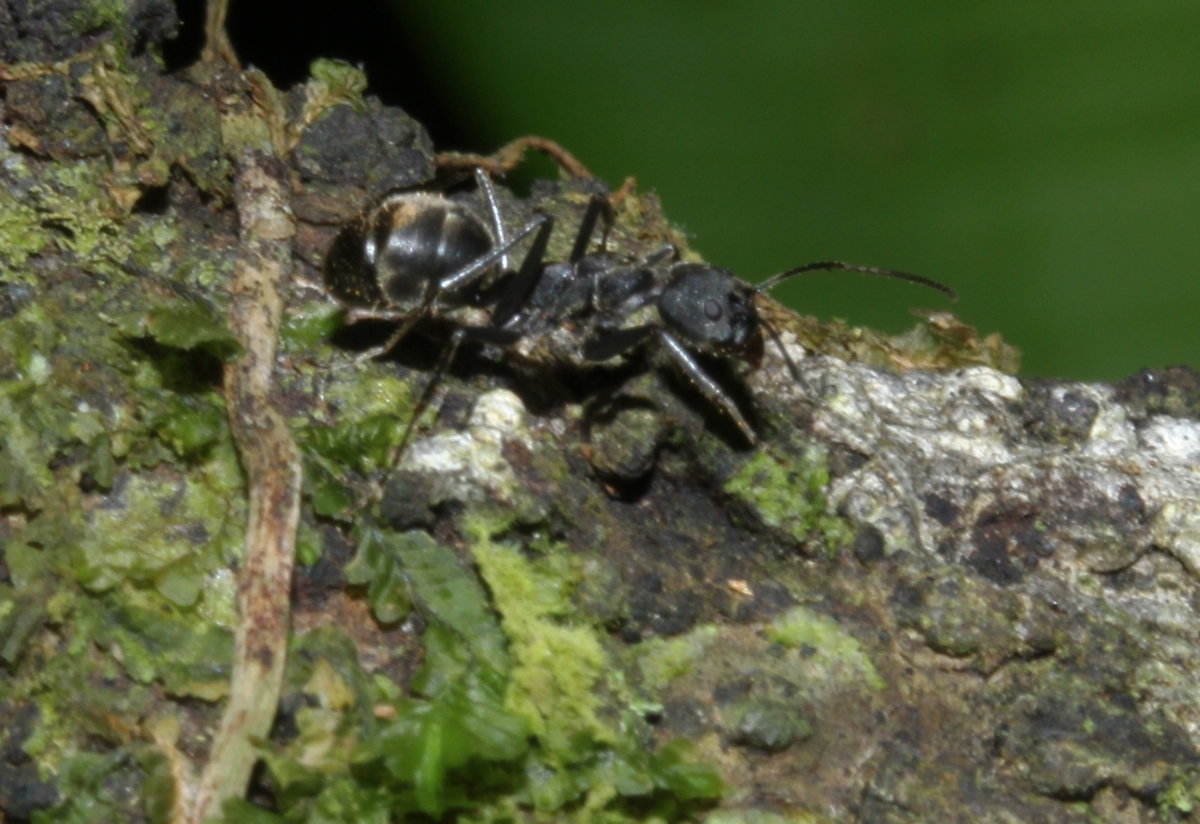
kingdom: Animalia
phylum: Arthropoda
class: Insecta
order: Hymenoptera
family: Formicidae
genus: Dolichoderus
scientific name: Dolichoderus lugens
